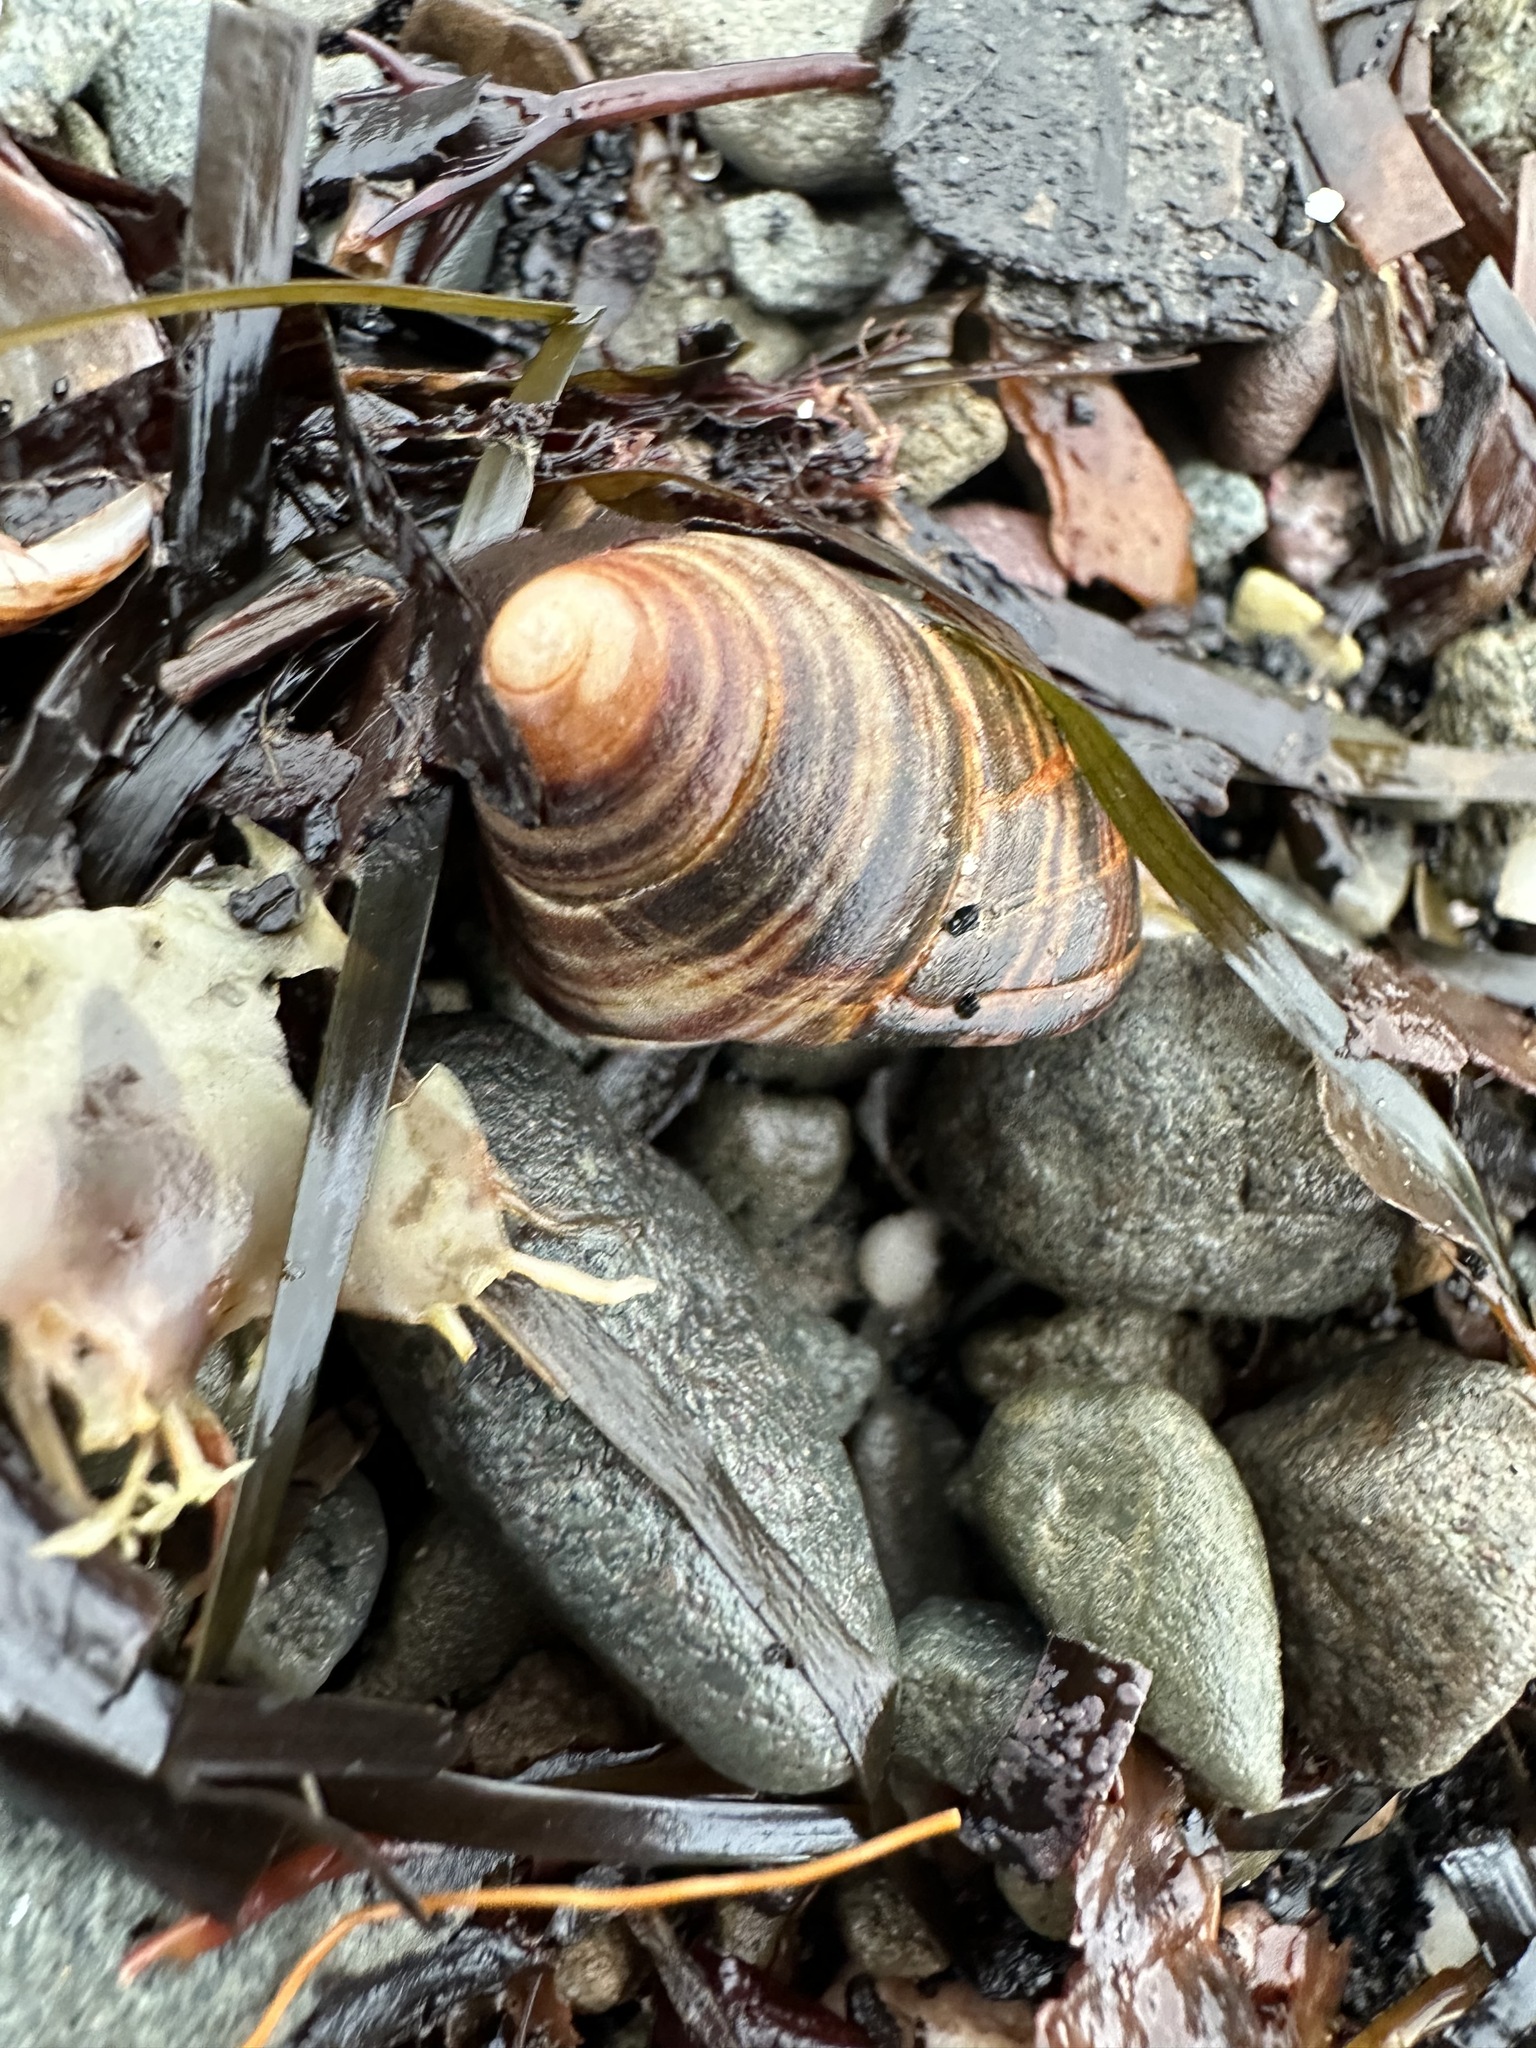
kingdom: Animalia
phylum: Mollusca
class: Gastropoda
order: Littorinimorpha
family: Littorinidae
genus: Littorina
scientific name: Littorina littorea
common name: Common periwinkle
